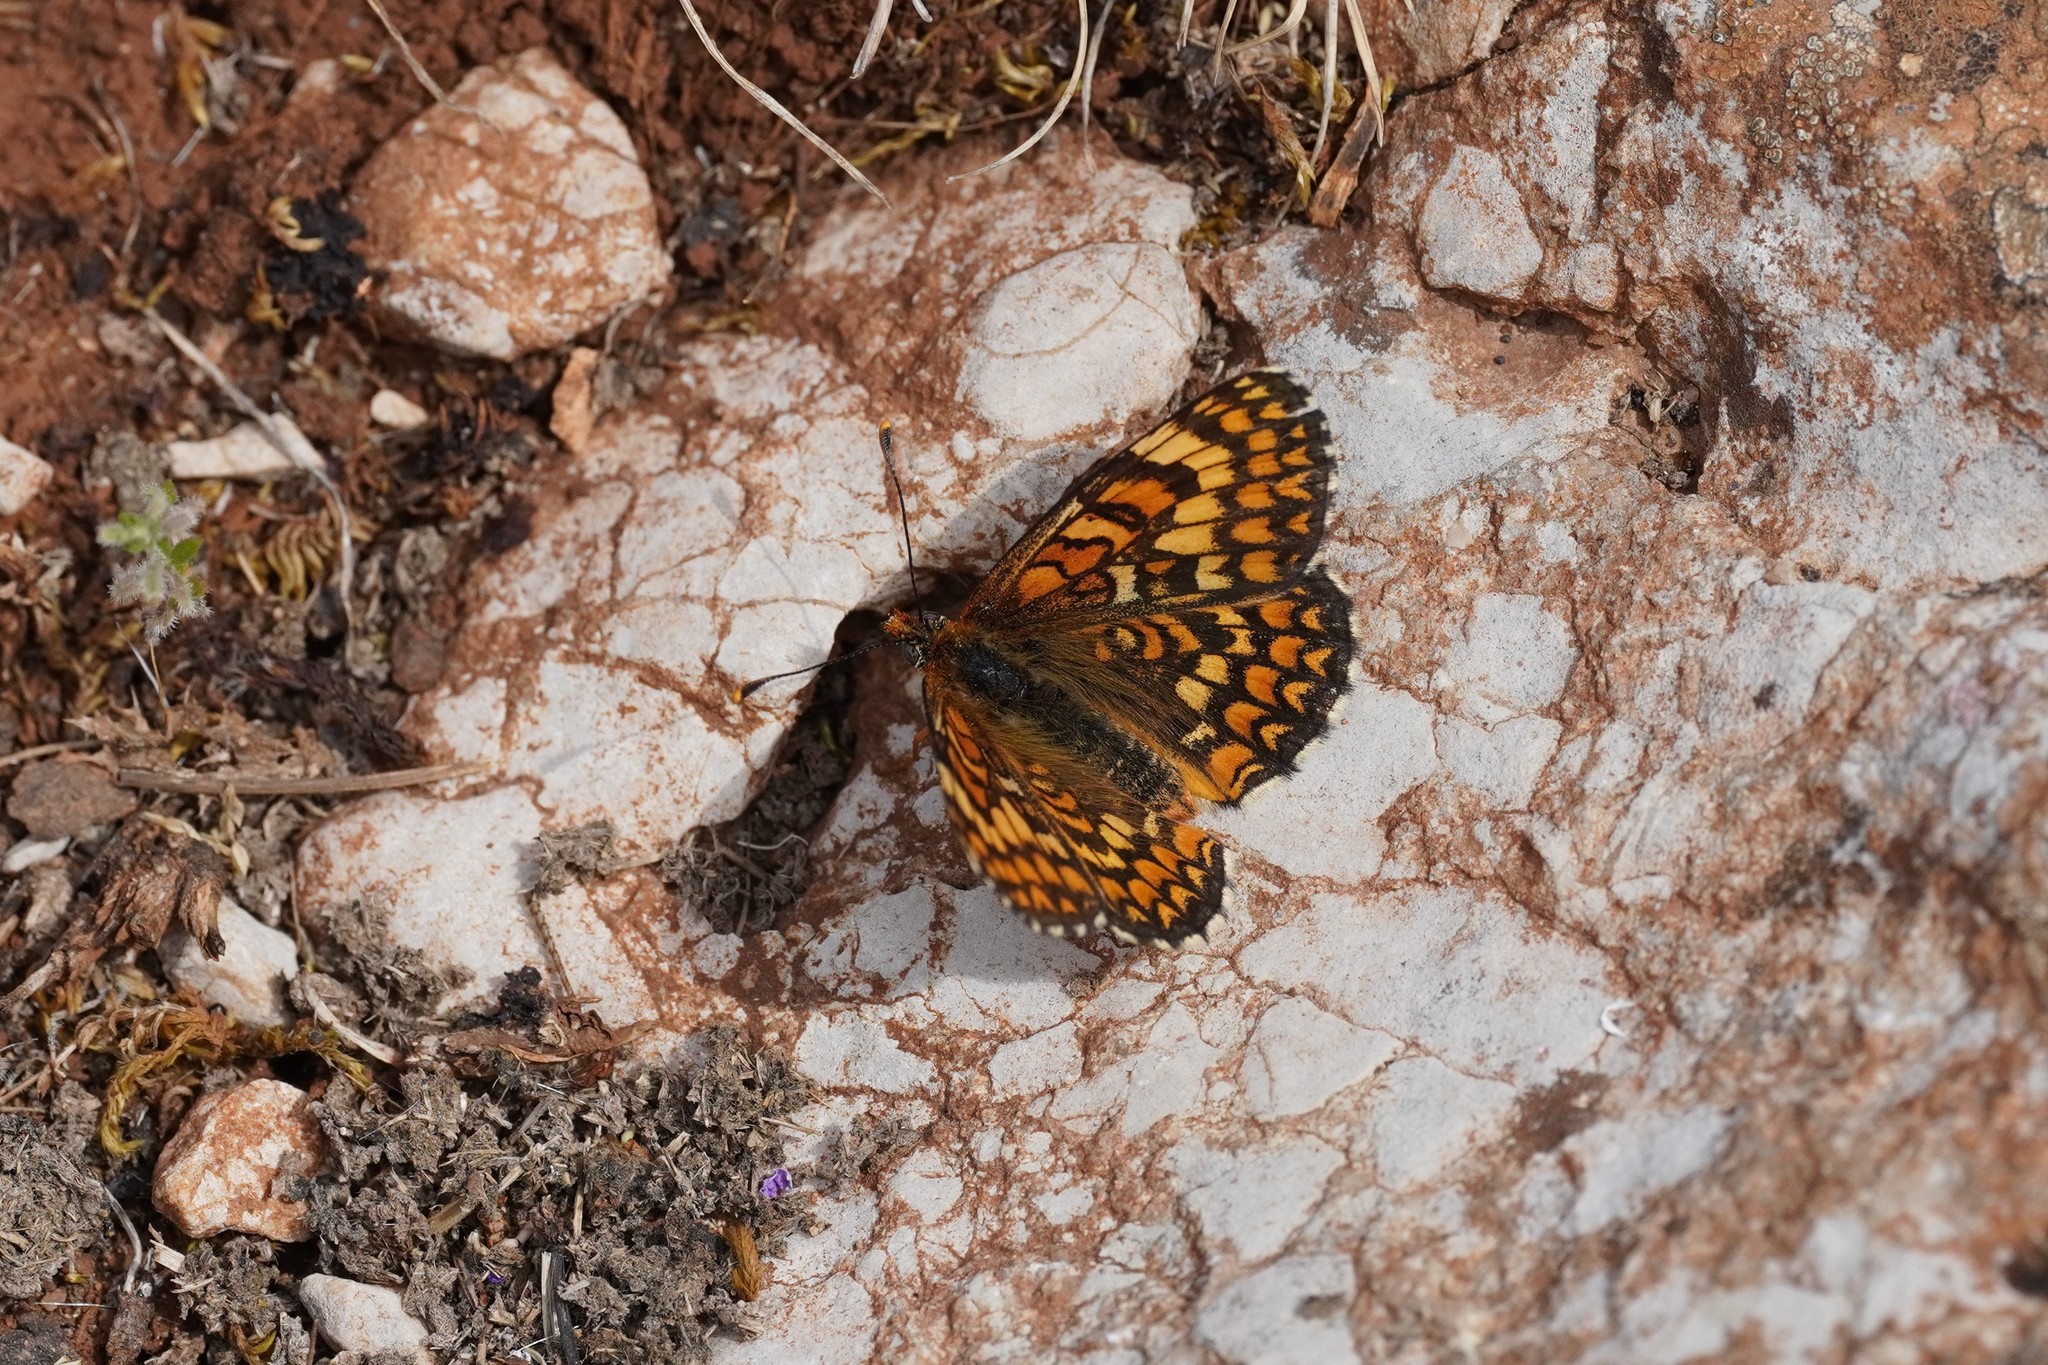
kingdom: Animalia
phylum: Arthropoda
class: Insecta
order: Lepidoptera
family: Nymphalidae
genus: Melitaea
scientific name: Melitaea phoebe
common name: Knapweed fritillary
